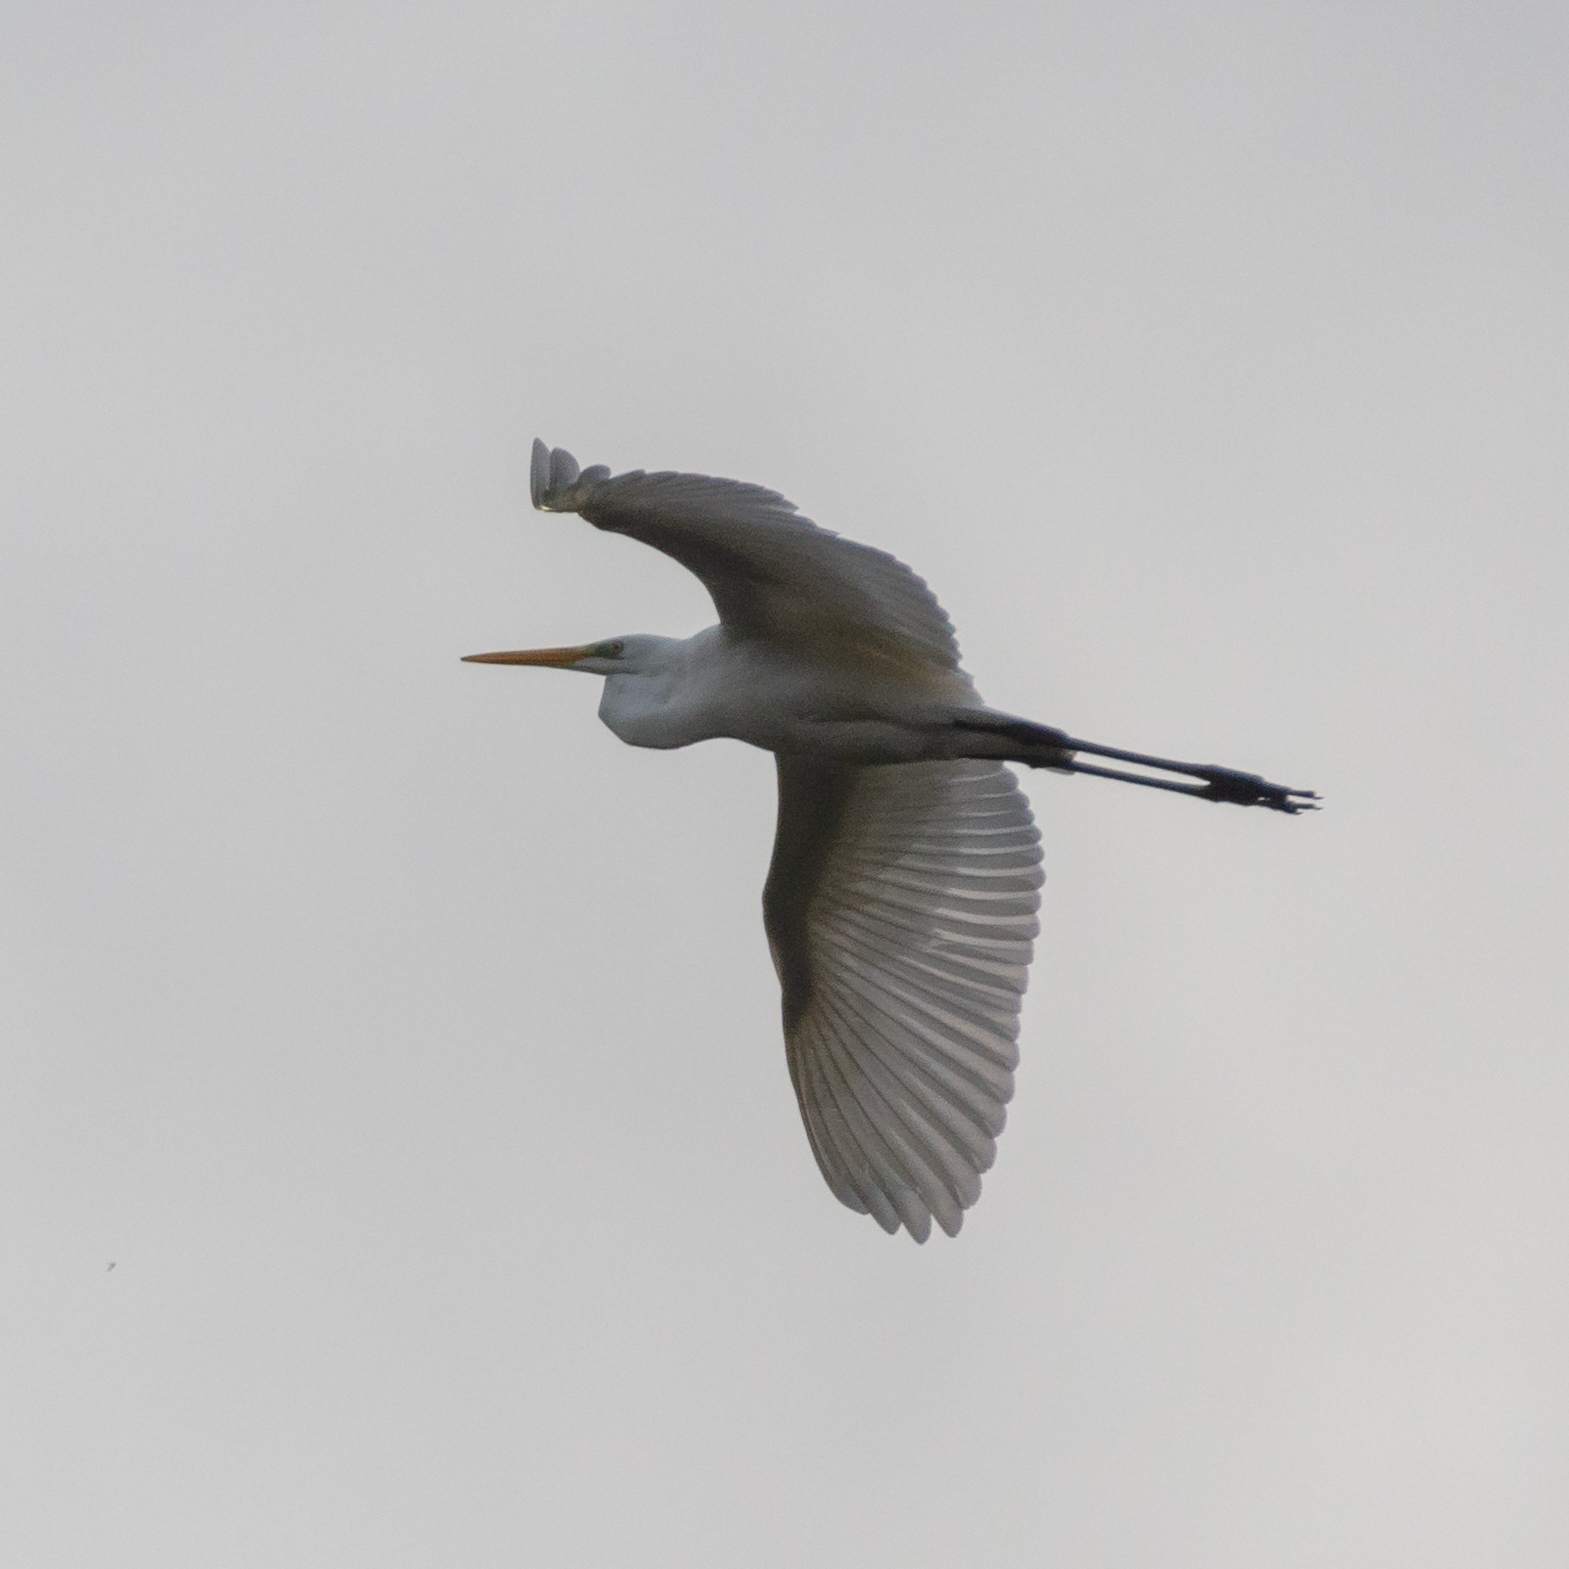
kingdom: Animalia
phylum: Chordata
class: Aves
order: Pelecaniformes
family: Ardeidae
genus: Ardea
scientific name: Ardea alba
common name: Great egret
